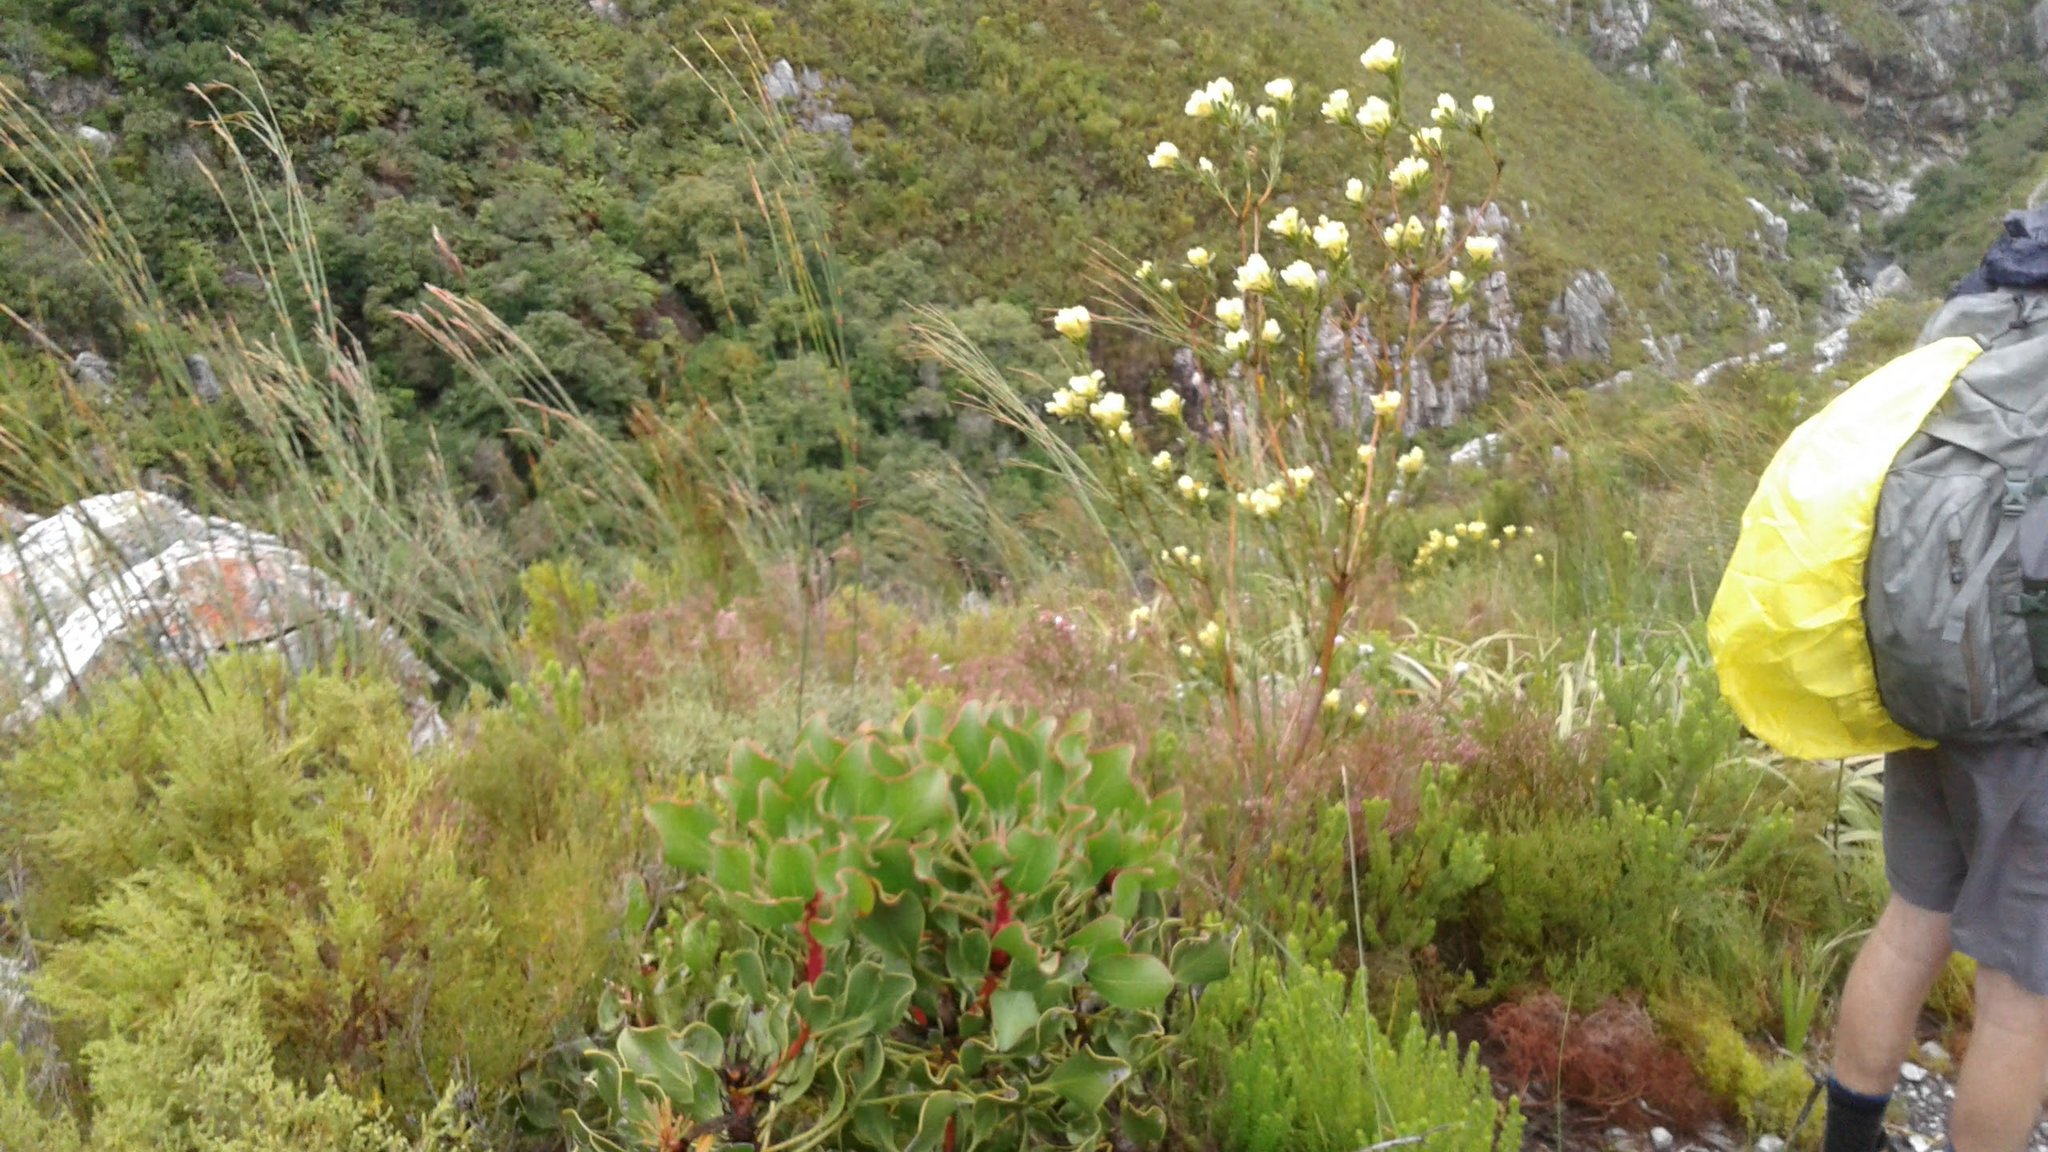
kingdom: Plantae
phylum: Tracheophyta
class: Magnoliopsida
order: Proteales
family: Proteaceae
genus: Protea
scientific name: Protea cynaroides
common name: King protea
